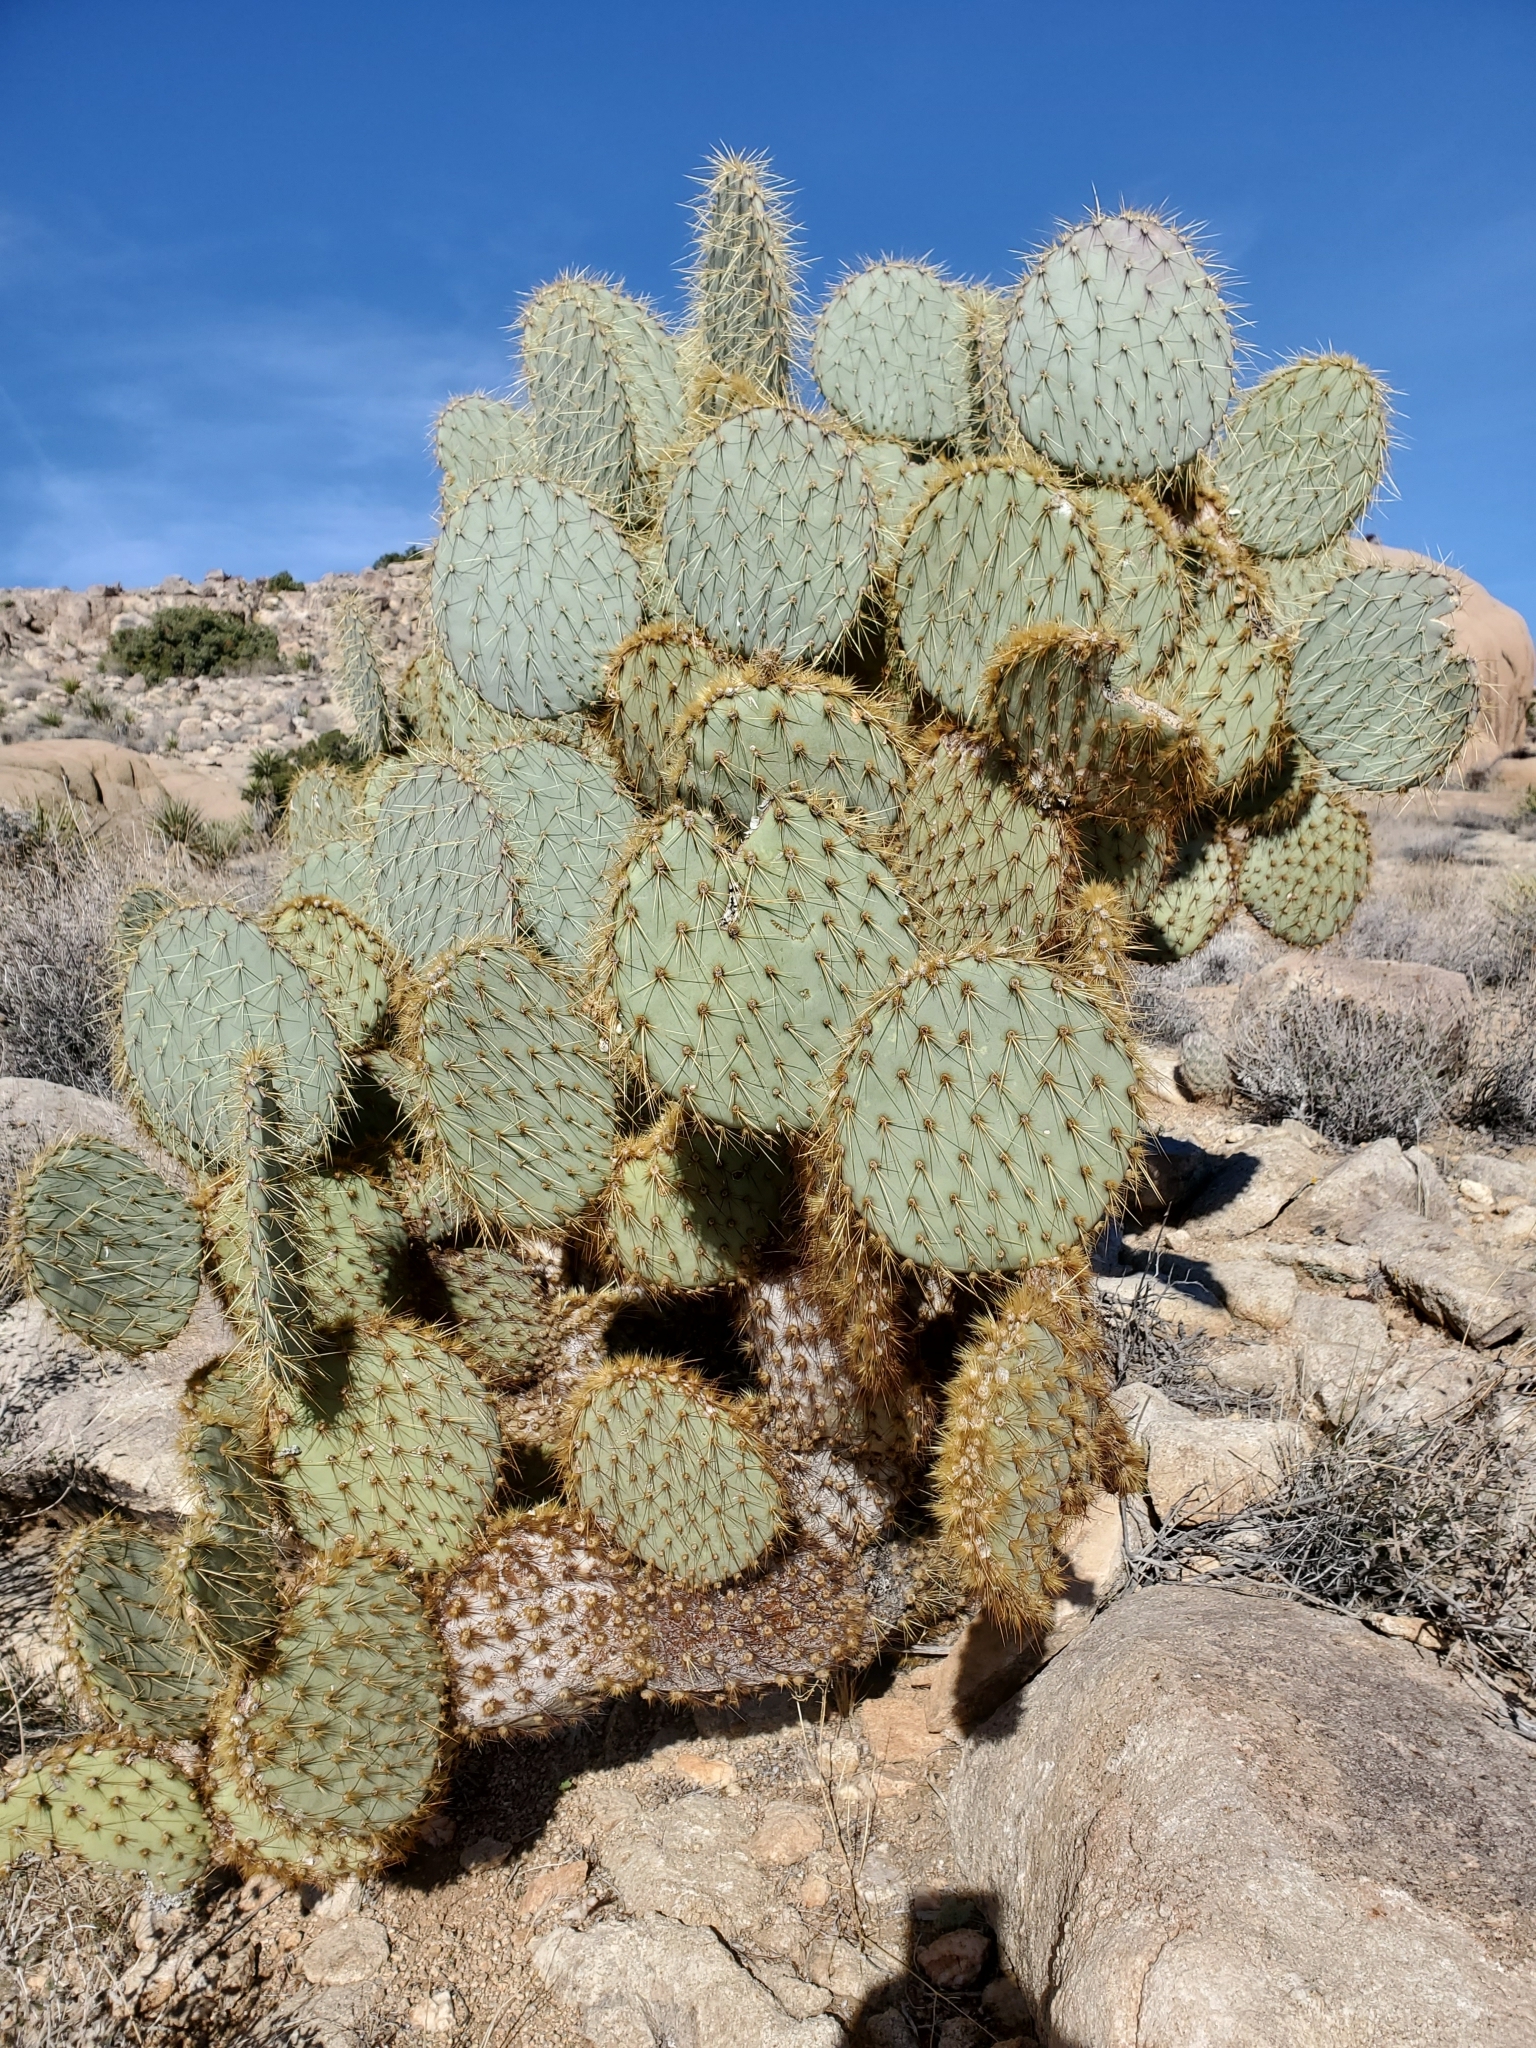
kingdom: Plantae
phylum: Tracheophyta
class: Magnoliopsida
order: Caryophyllales
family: Cactaceae
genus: Opuntia
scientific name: Opuntia chlorotica
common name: Dollar-joint prickly-pear
